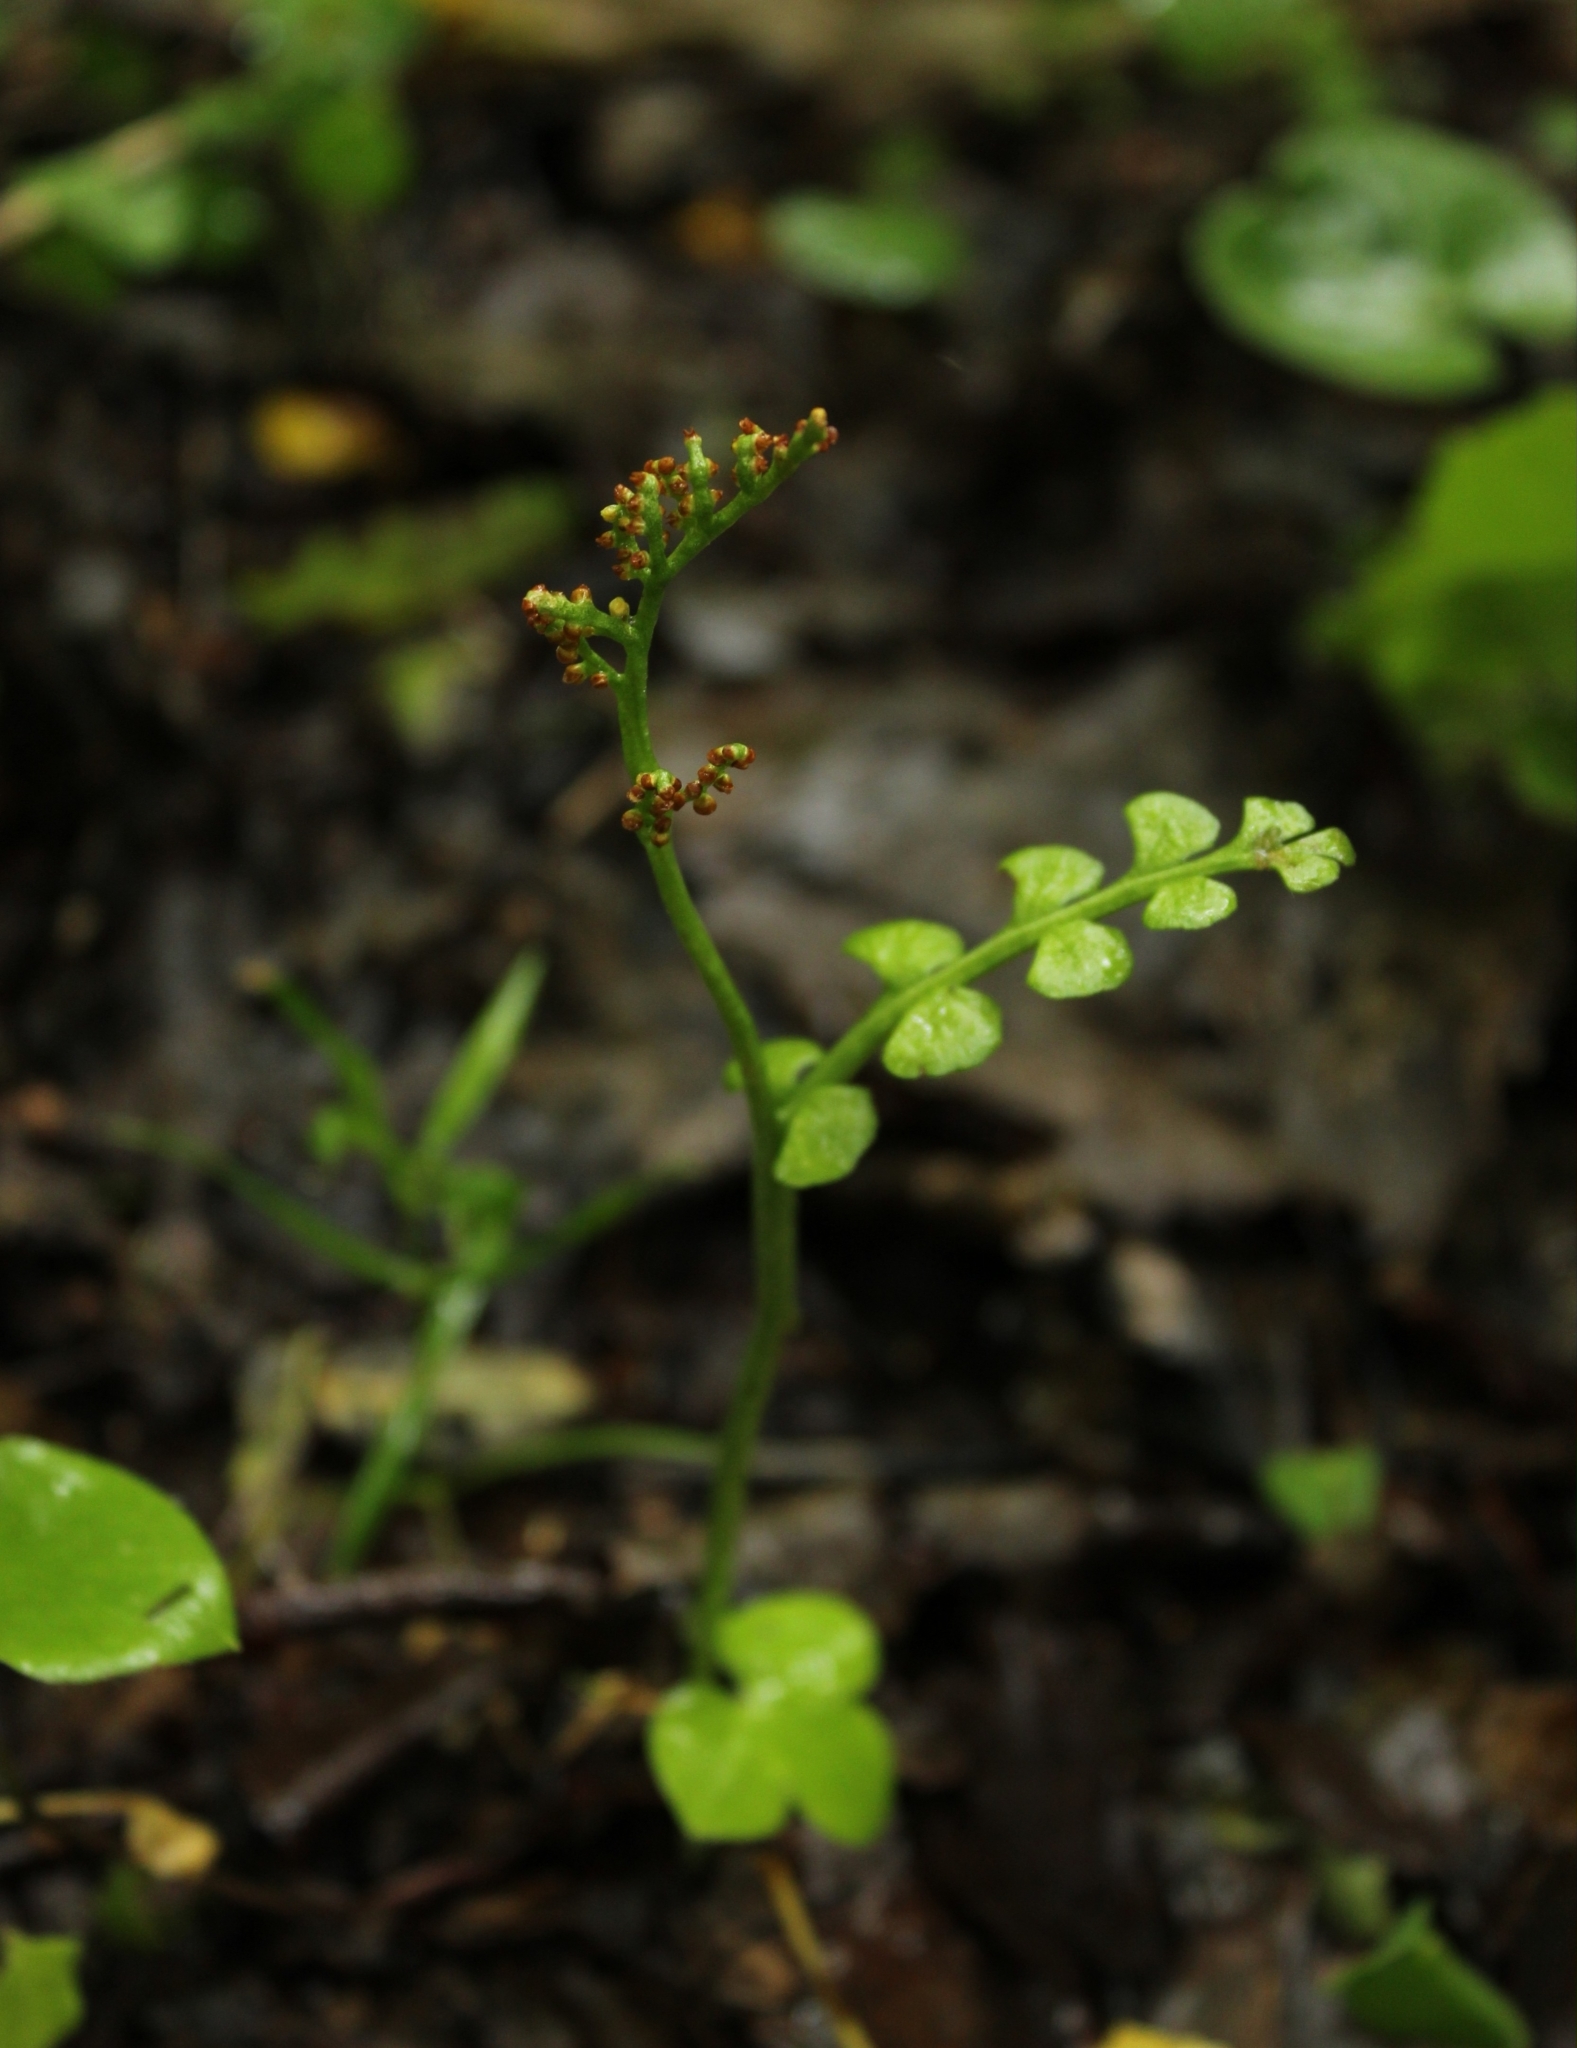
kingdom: Plantae
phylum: Tracheophyta
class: Polypodiopsida
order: Ophioglossales
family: Ophioglossaceae
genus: Botrychium
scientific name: Botrychium lunaria
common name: Moonwort
